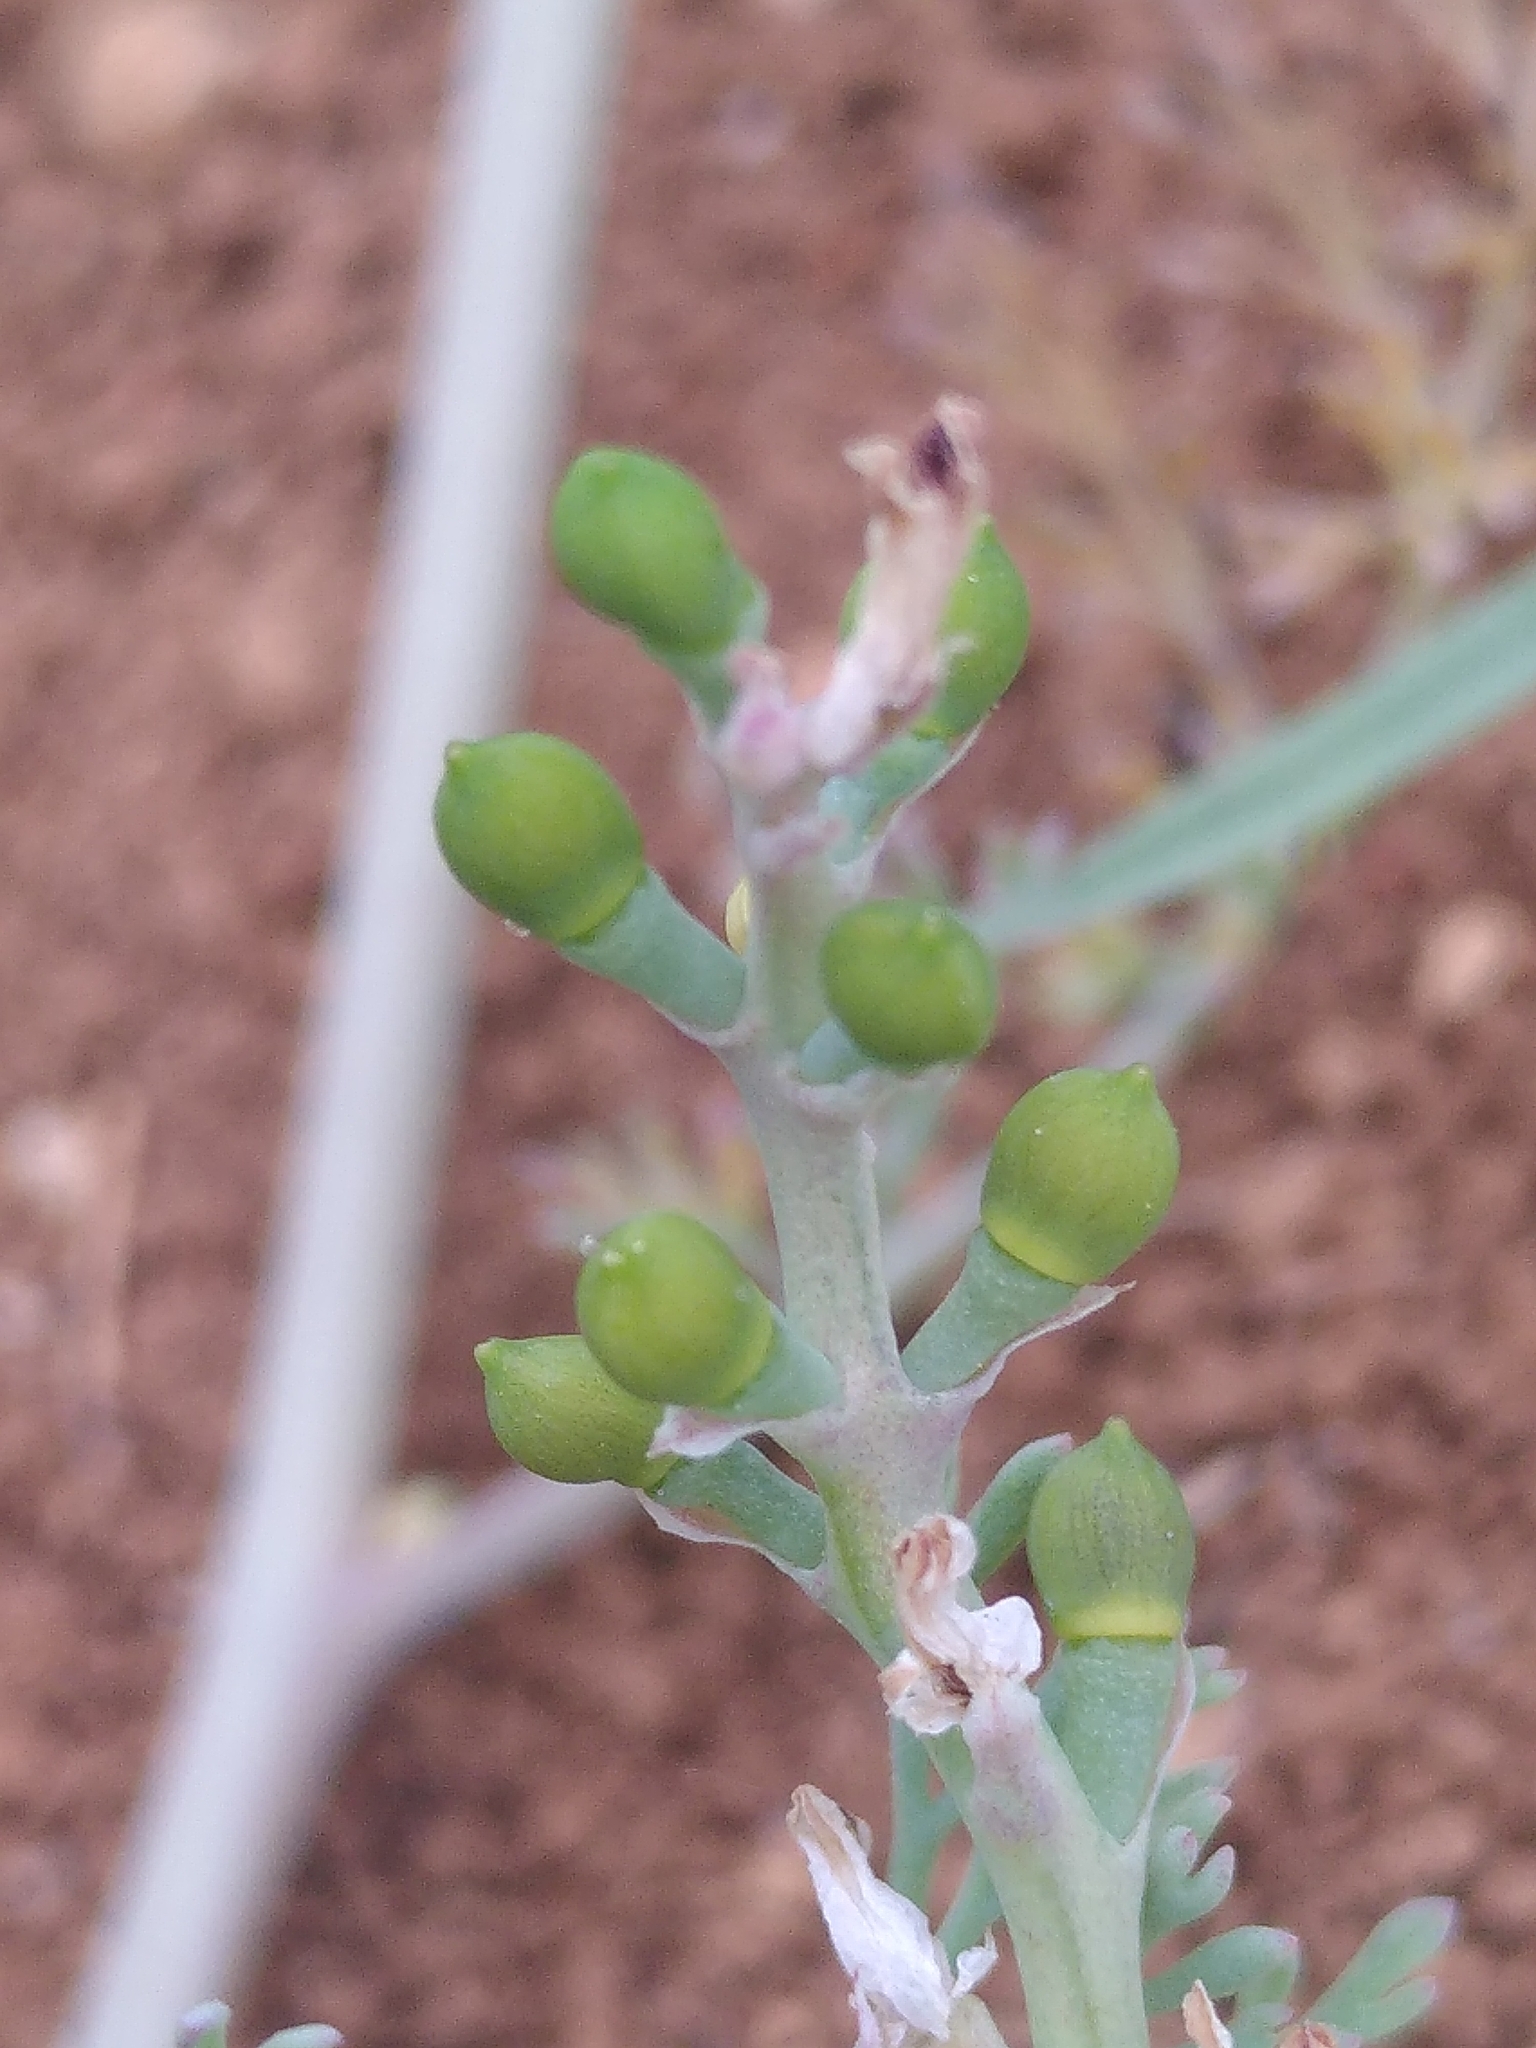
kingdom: Plantae
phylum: Tracheophyta
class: Magnoliopsida
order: Ranunculales
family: Papaveraceae
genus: Fumaria
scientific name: Fumaria capreolata
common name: White ramping-fumitory
